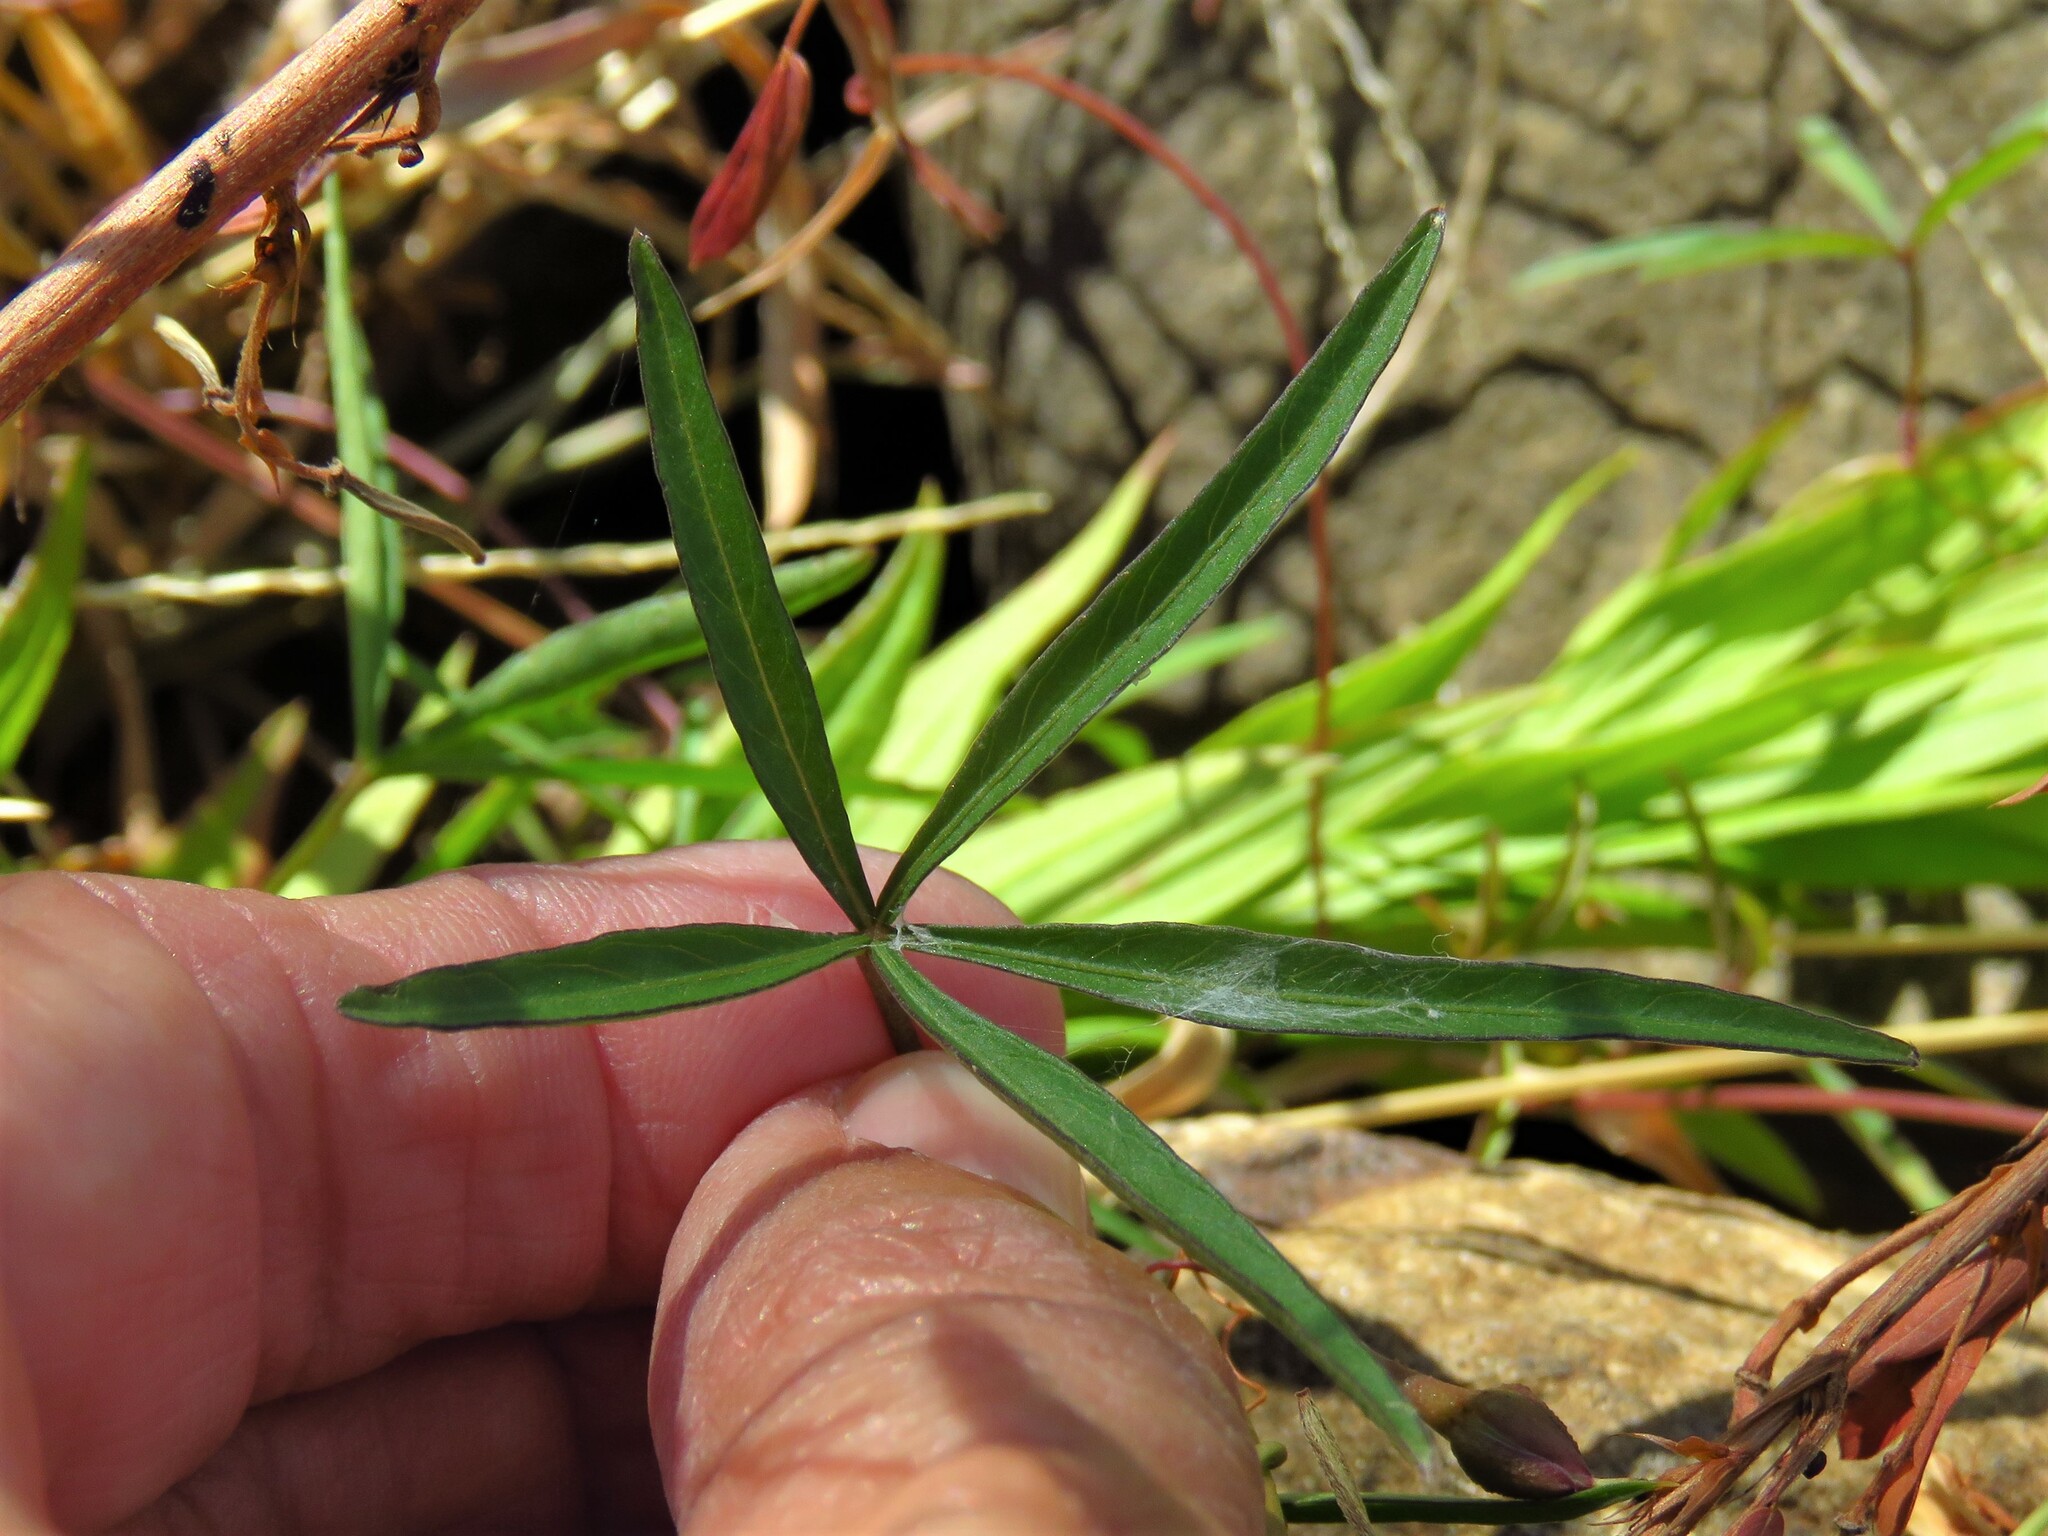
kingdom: Plantae
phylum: Tracheophyta
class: Magnoliopsida
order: Solanales
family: Convolvulaceae
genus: Ipomoea
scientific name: Ipomoea heptaphylla
